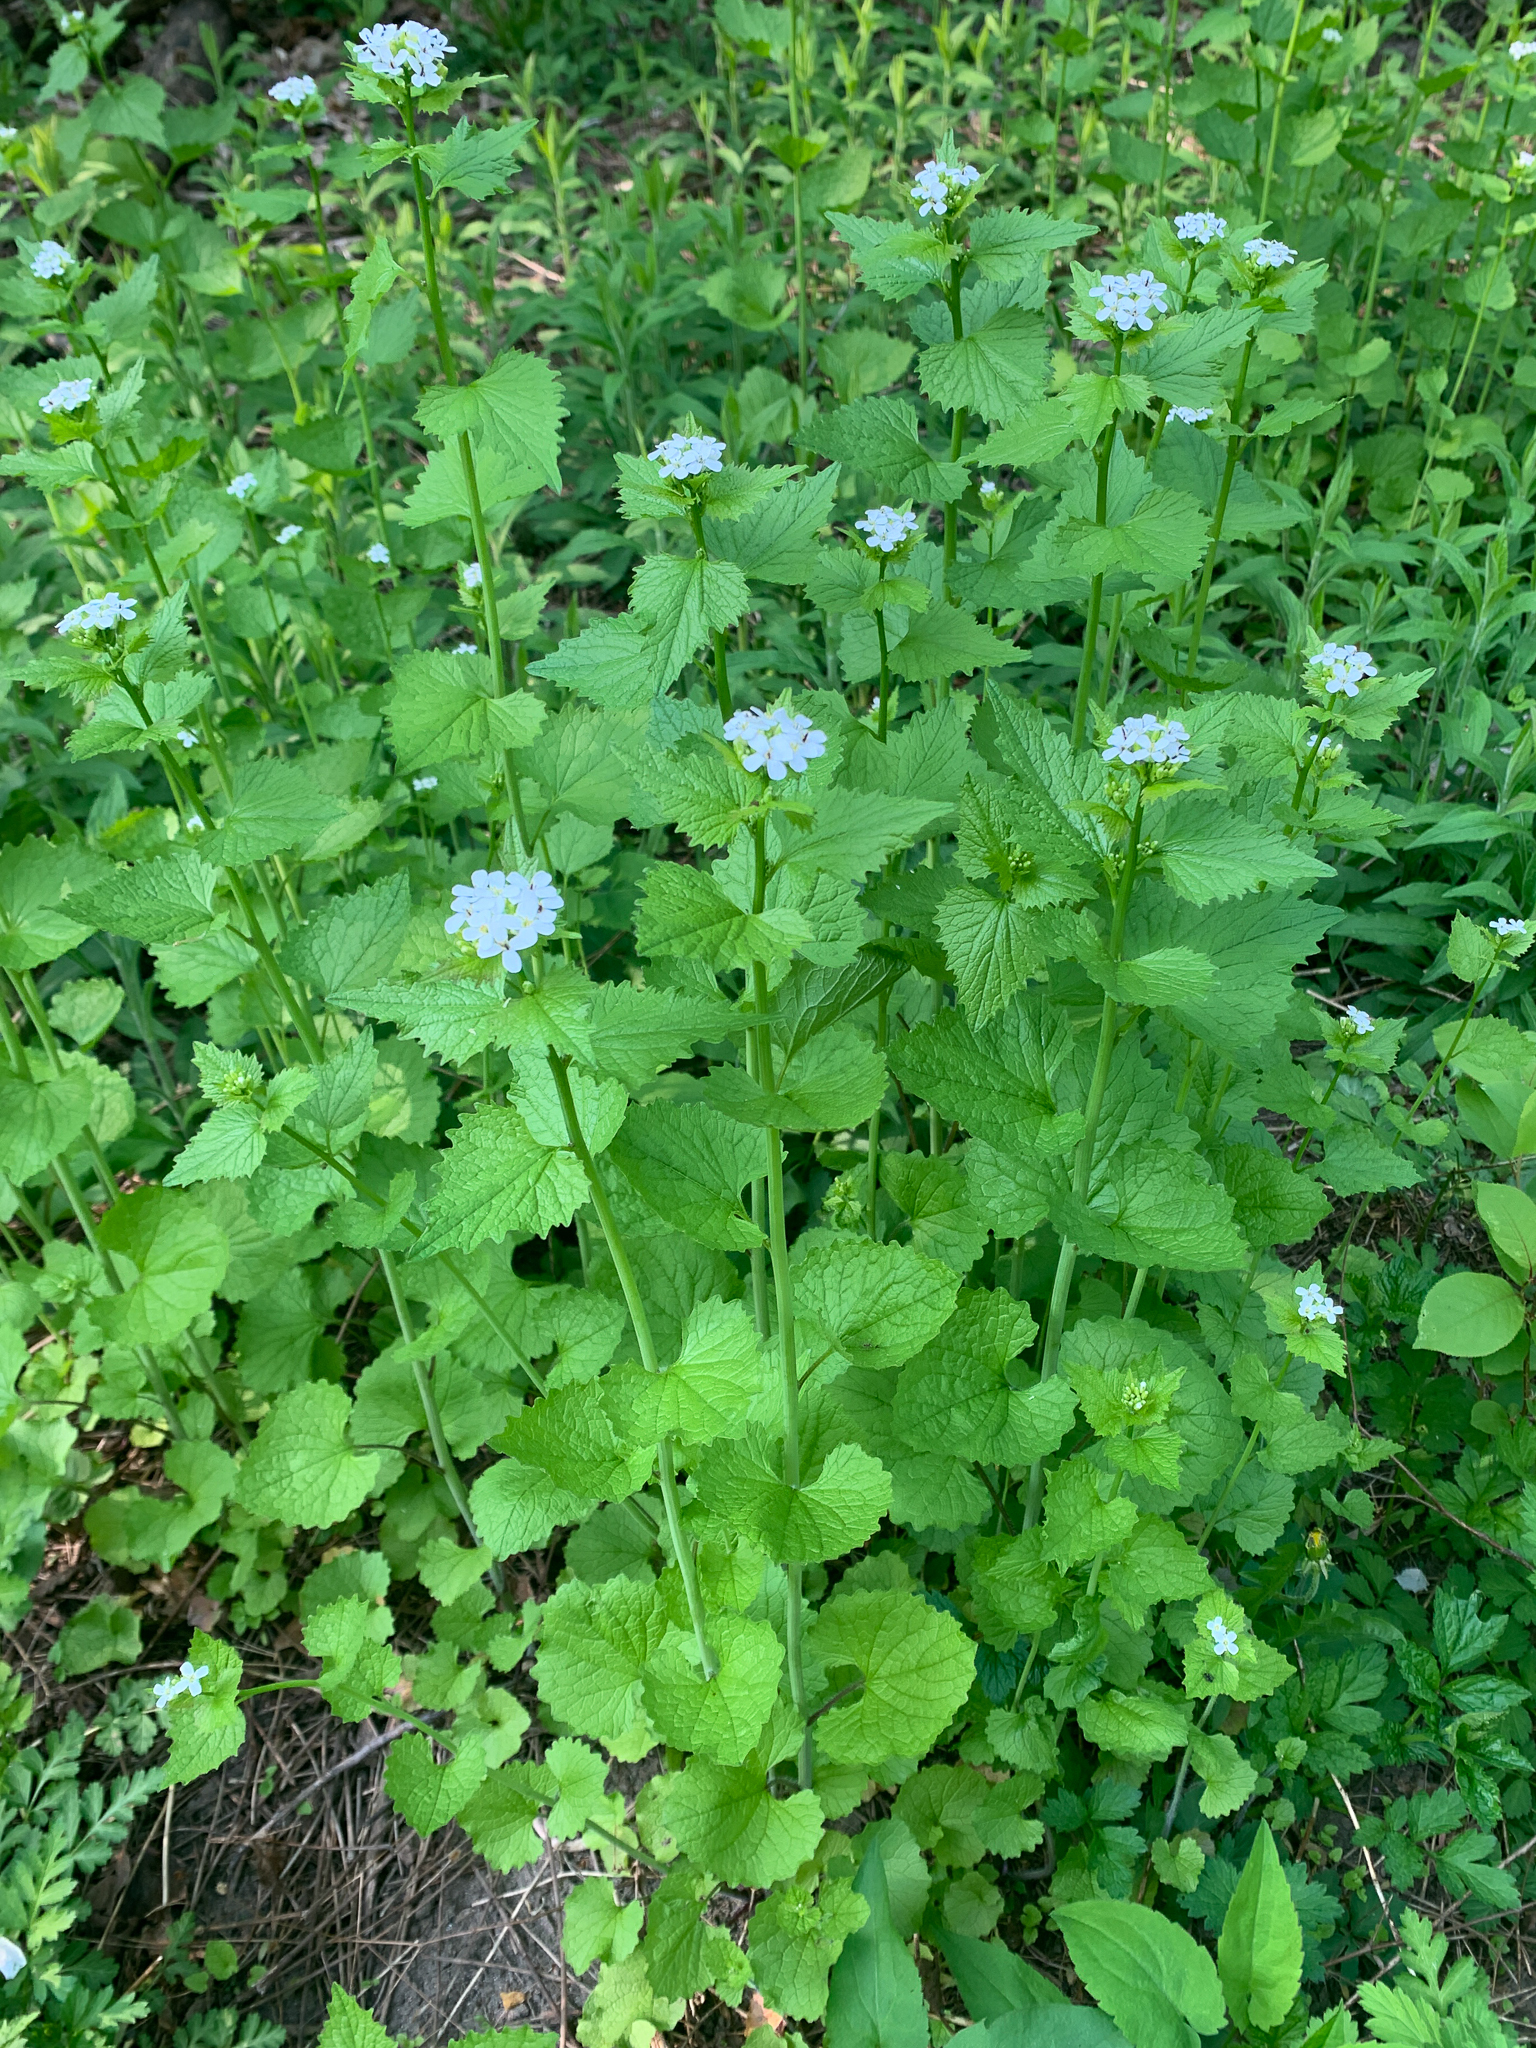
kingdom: Plantae
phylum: Tracheophyta
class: Magnoliopsida
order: Brassicales
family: Brassicaceae
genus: Alliaria
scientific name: Alliaria petiolata
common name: Garlic mustard
